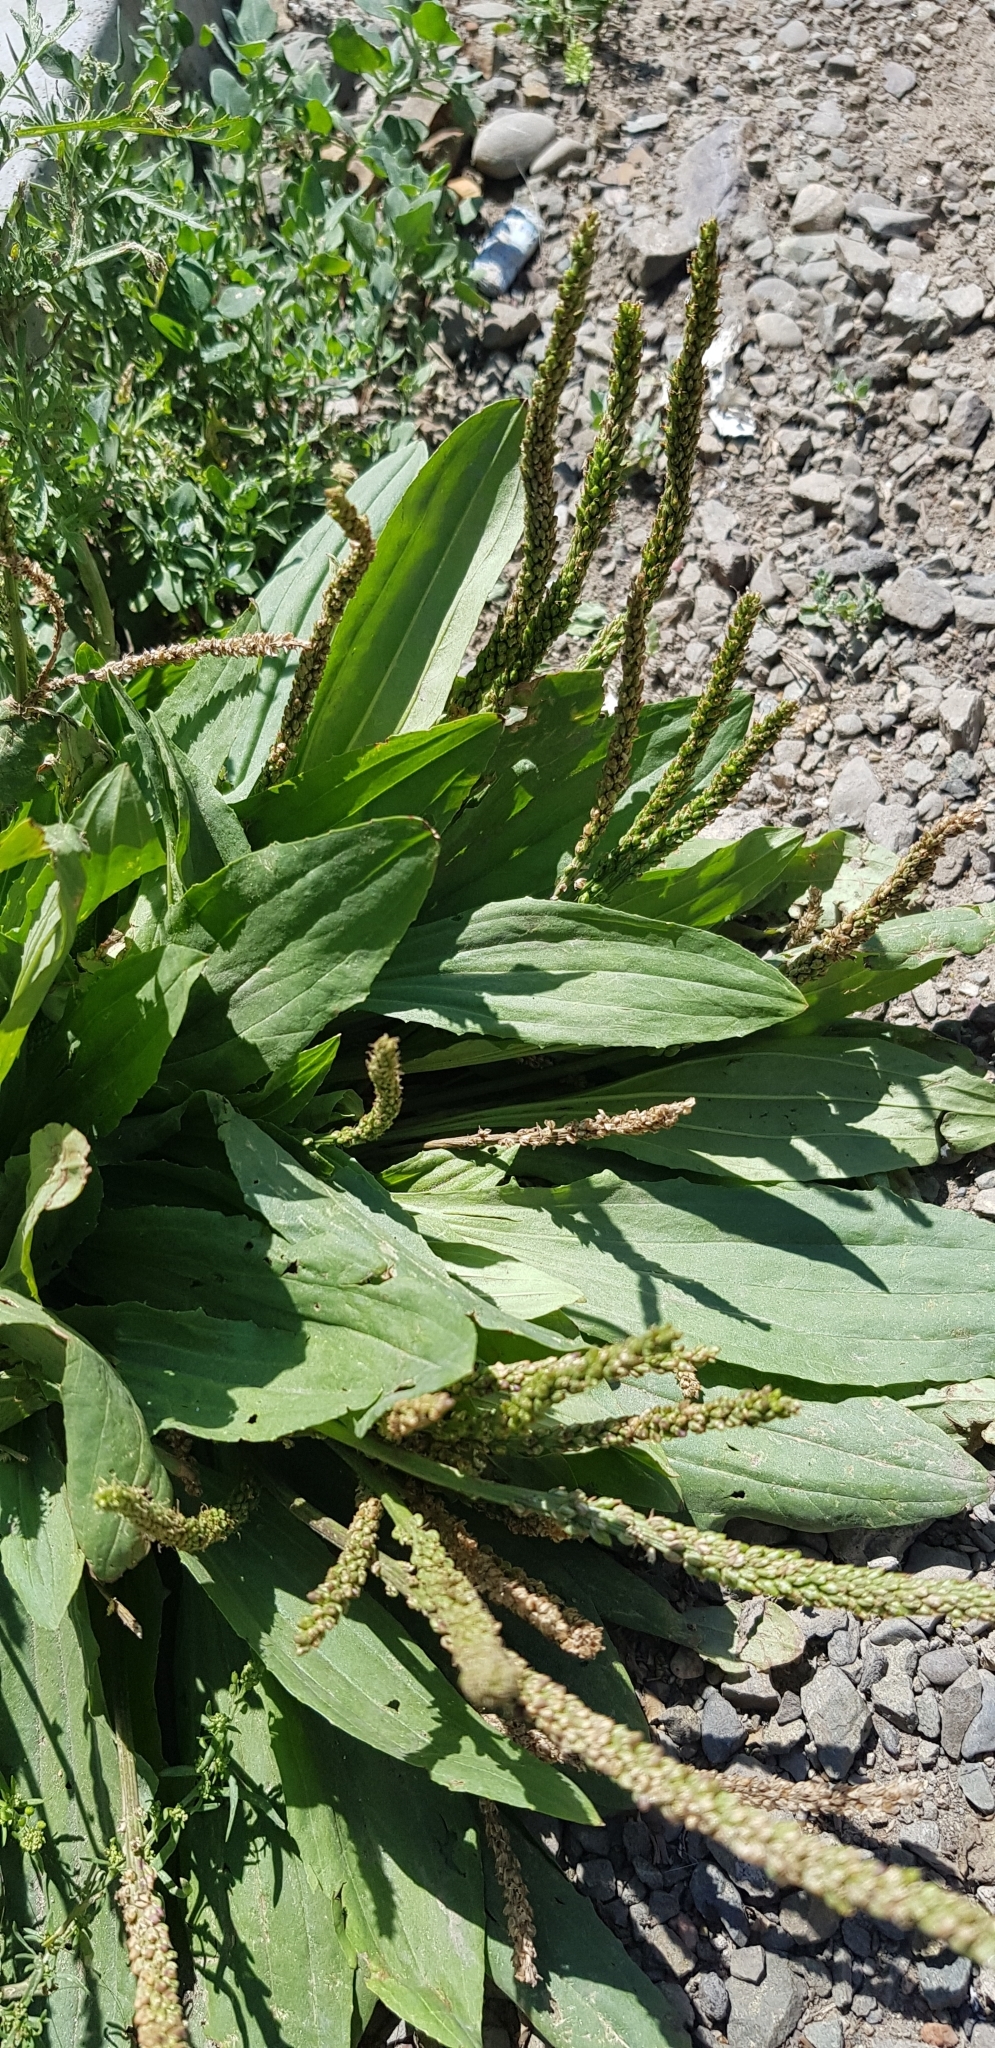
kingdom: Plantae
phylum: Tracheophyta
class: Magnoliopsida
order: Lamiales
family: Plantaginaceae
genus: Plantago
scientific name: Plantago depressa
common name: Depressed plantain
